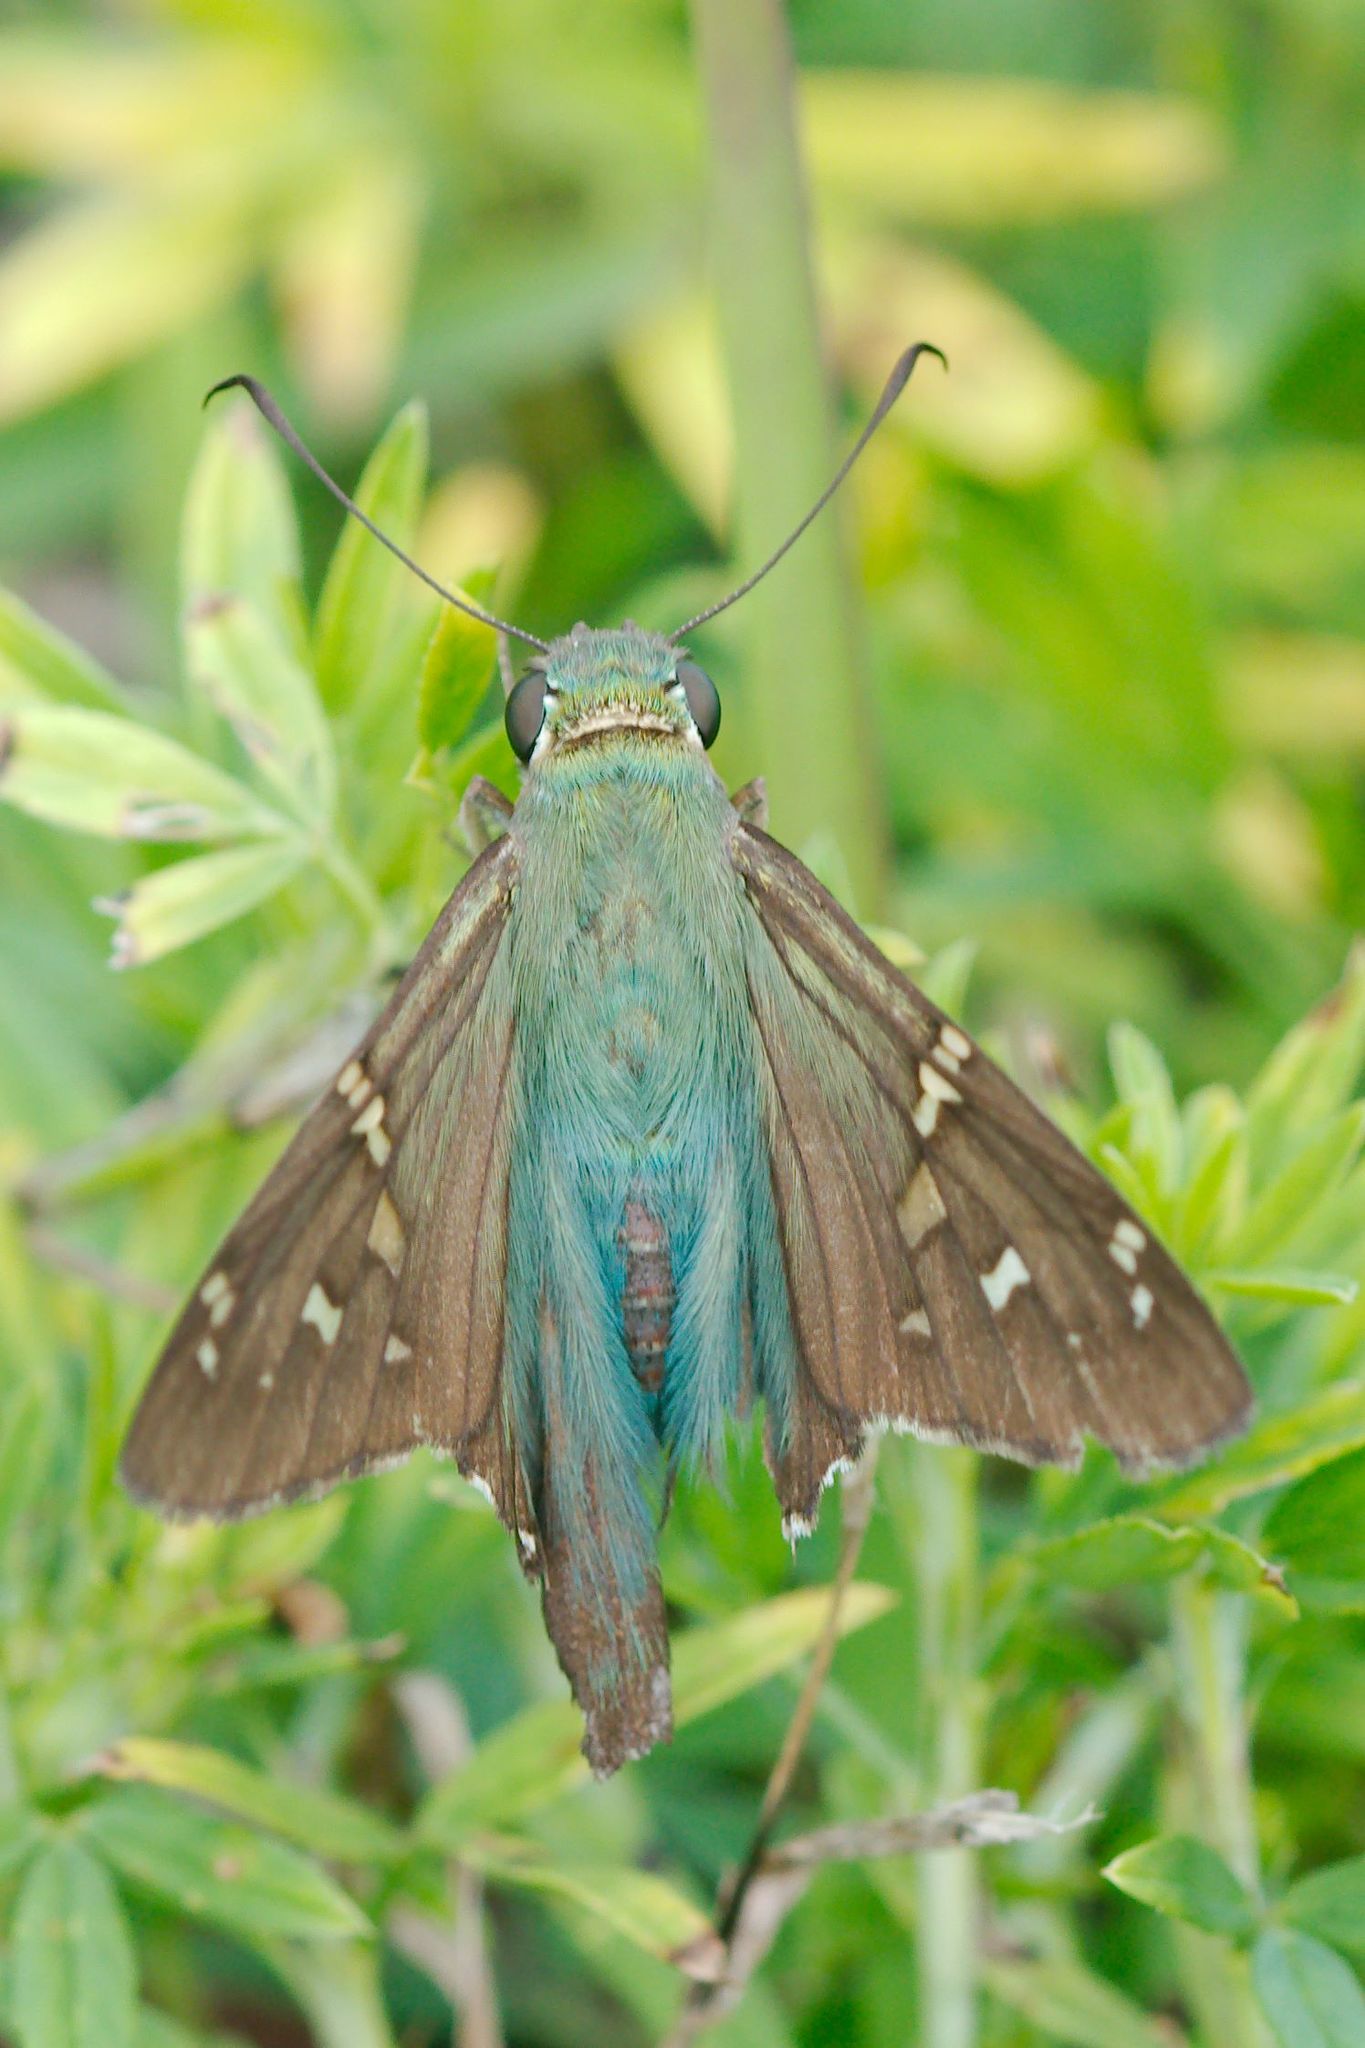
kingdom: Animalia
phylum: Arthropoda
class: Insecta
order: Lepidoptera
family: Hesperiidae
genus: Urbanus
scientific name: Urbanus proteus
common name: Long-tailed skipper
